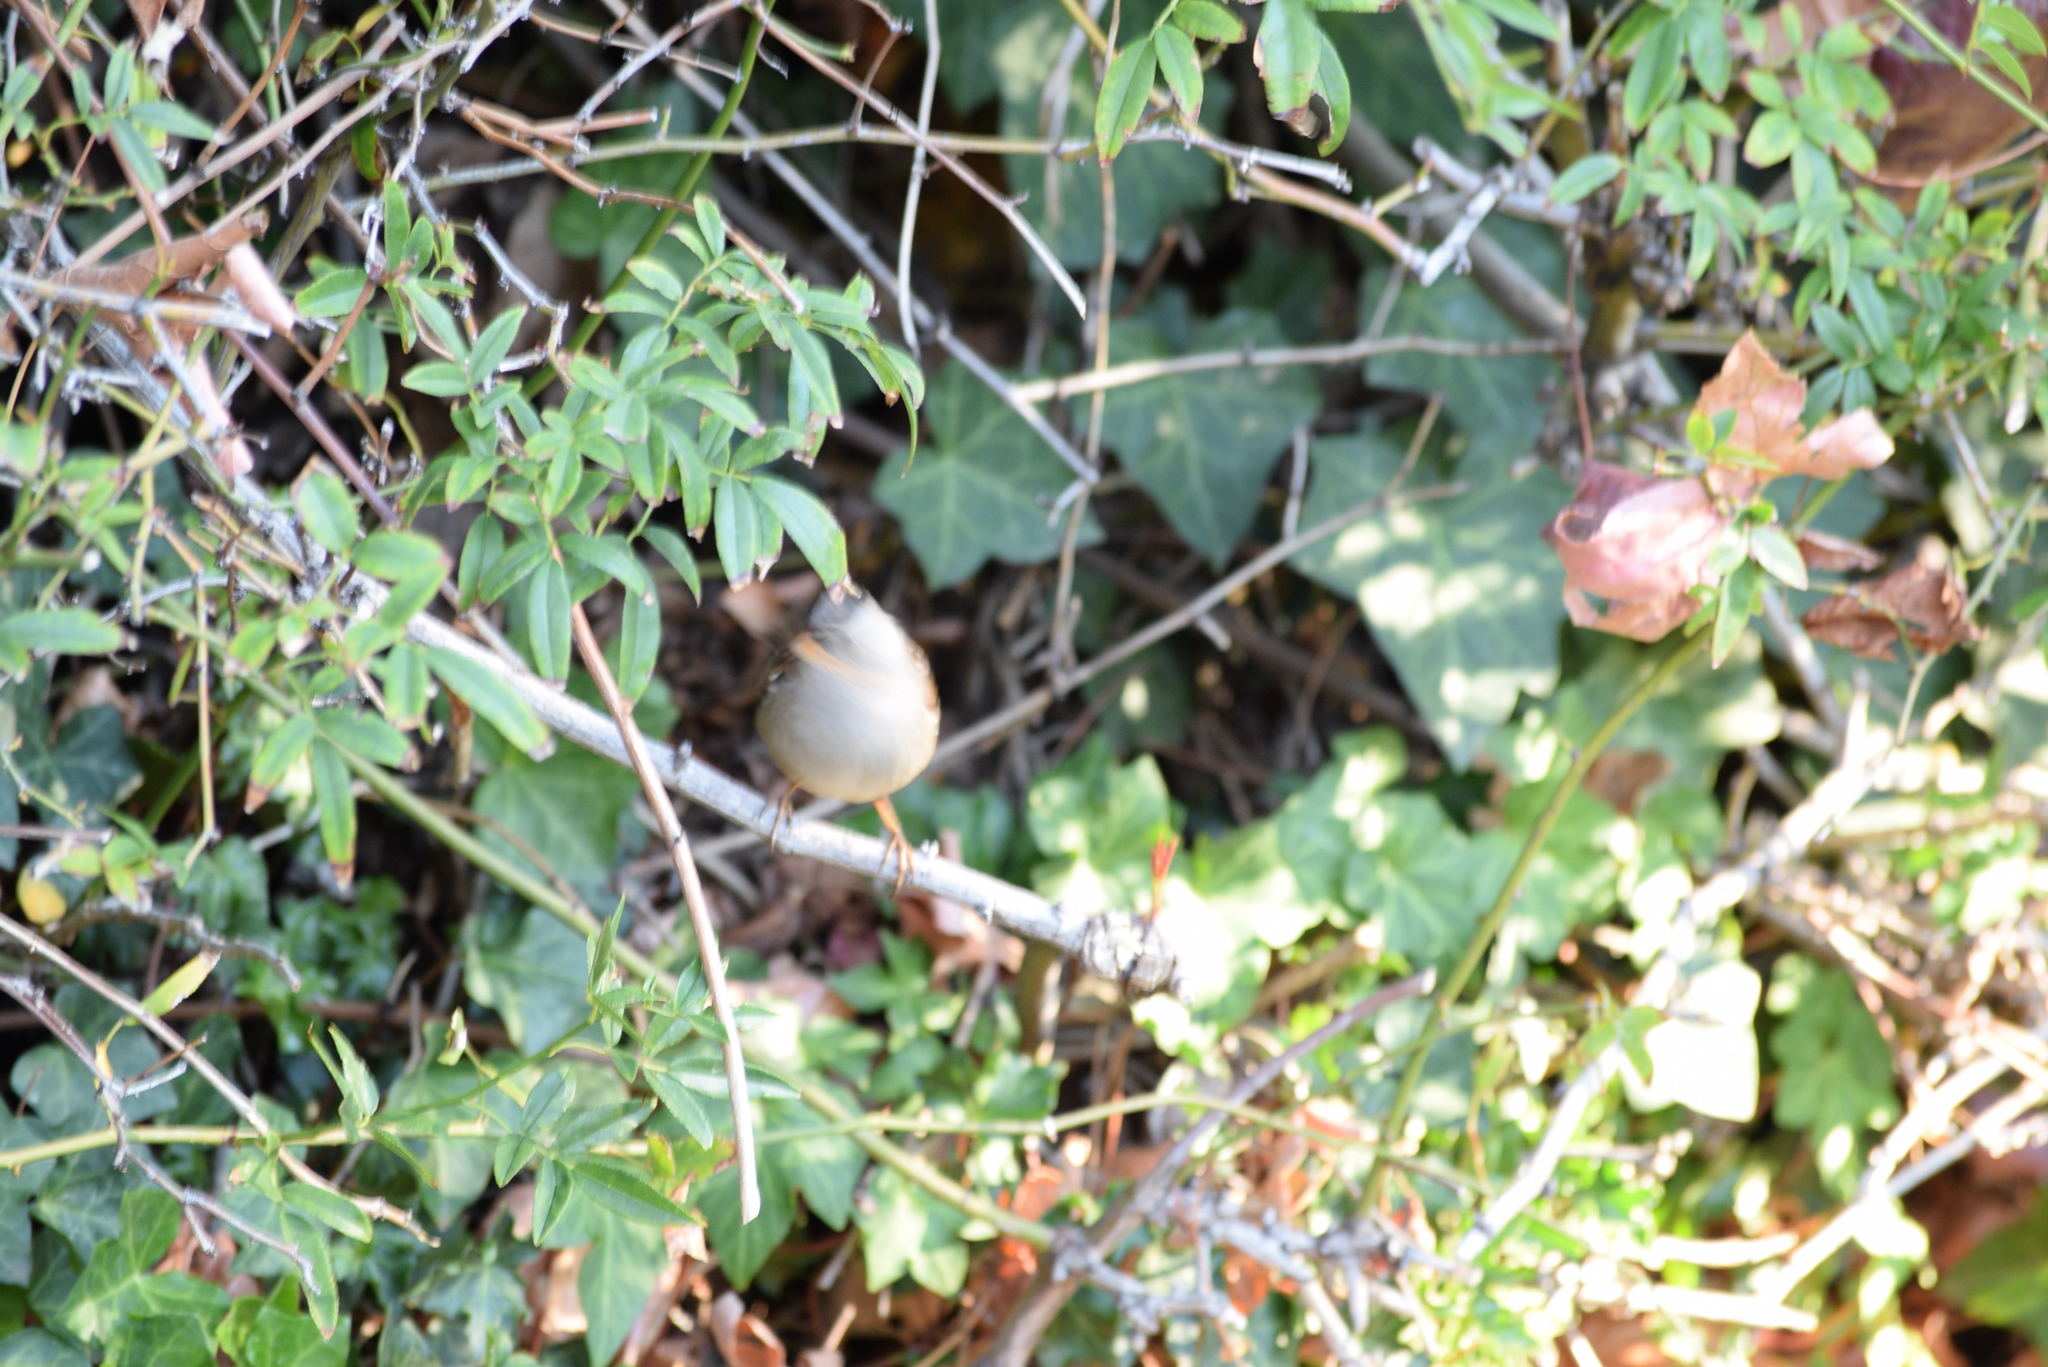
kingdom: Animalia
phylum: Chordata
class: Aves
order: Passeriformes
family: Passerellidae
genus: Zonotrichia
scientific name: Zonotrichia leucophrys
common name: White-crowned sparrow
